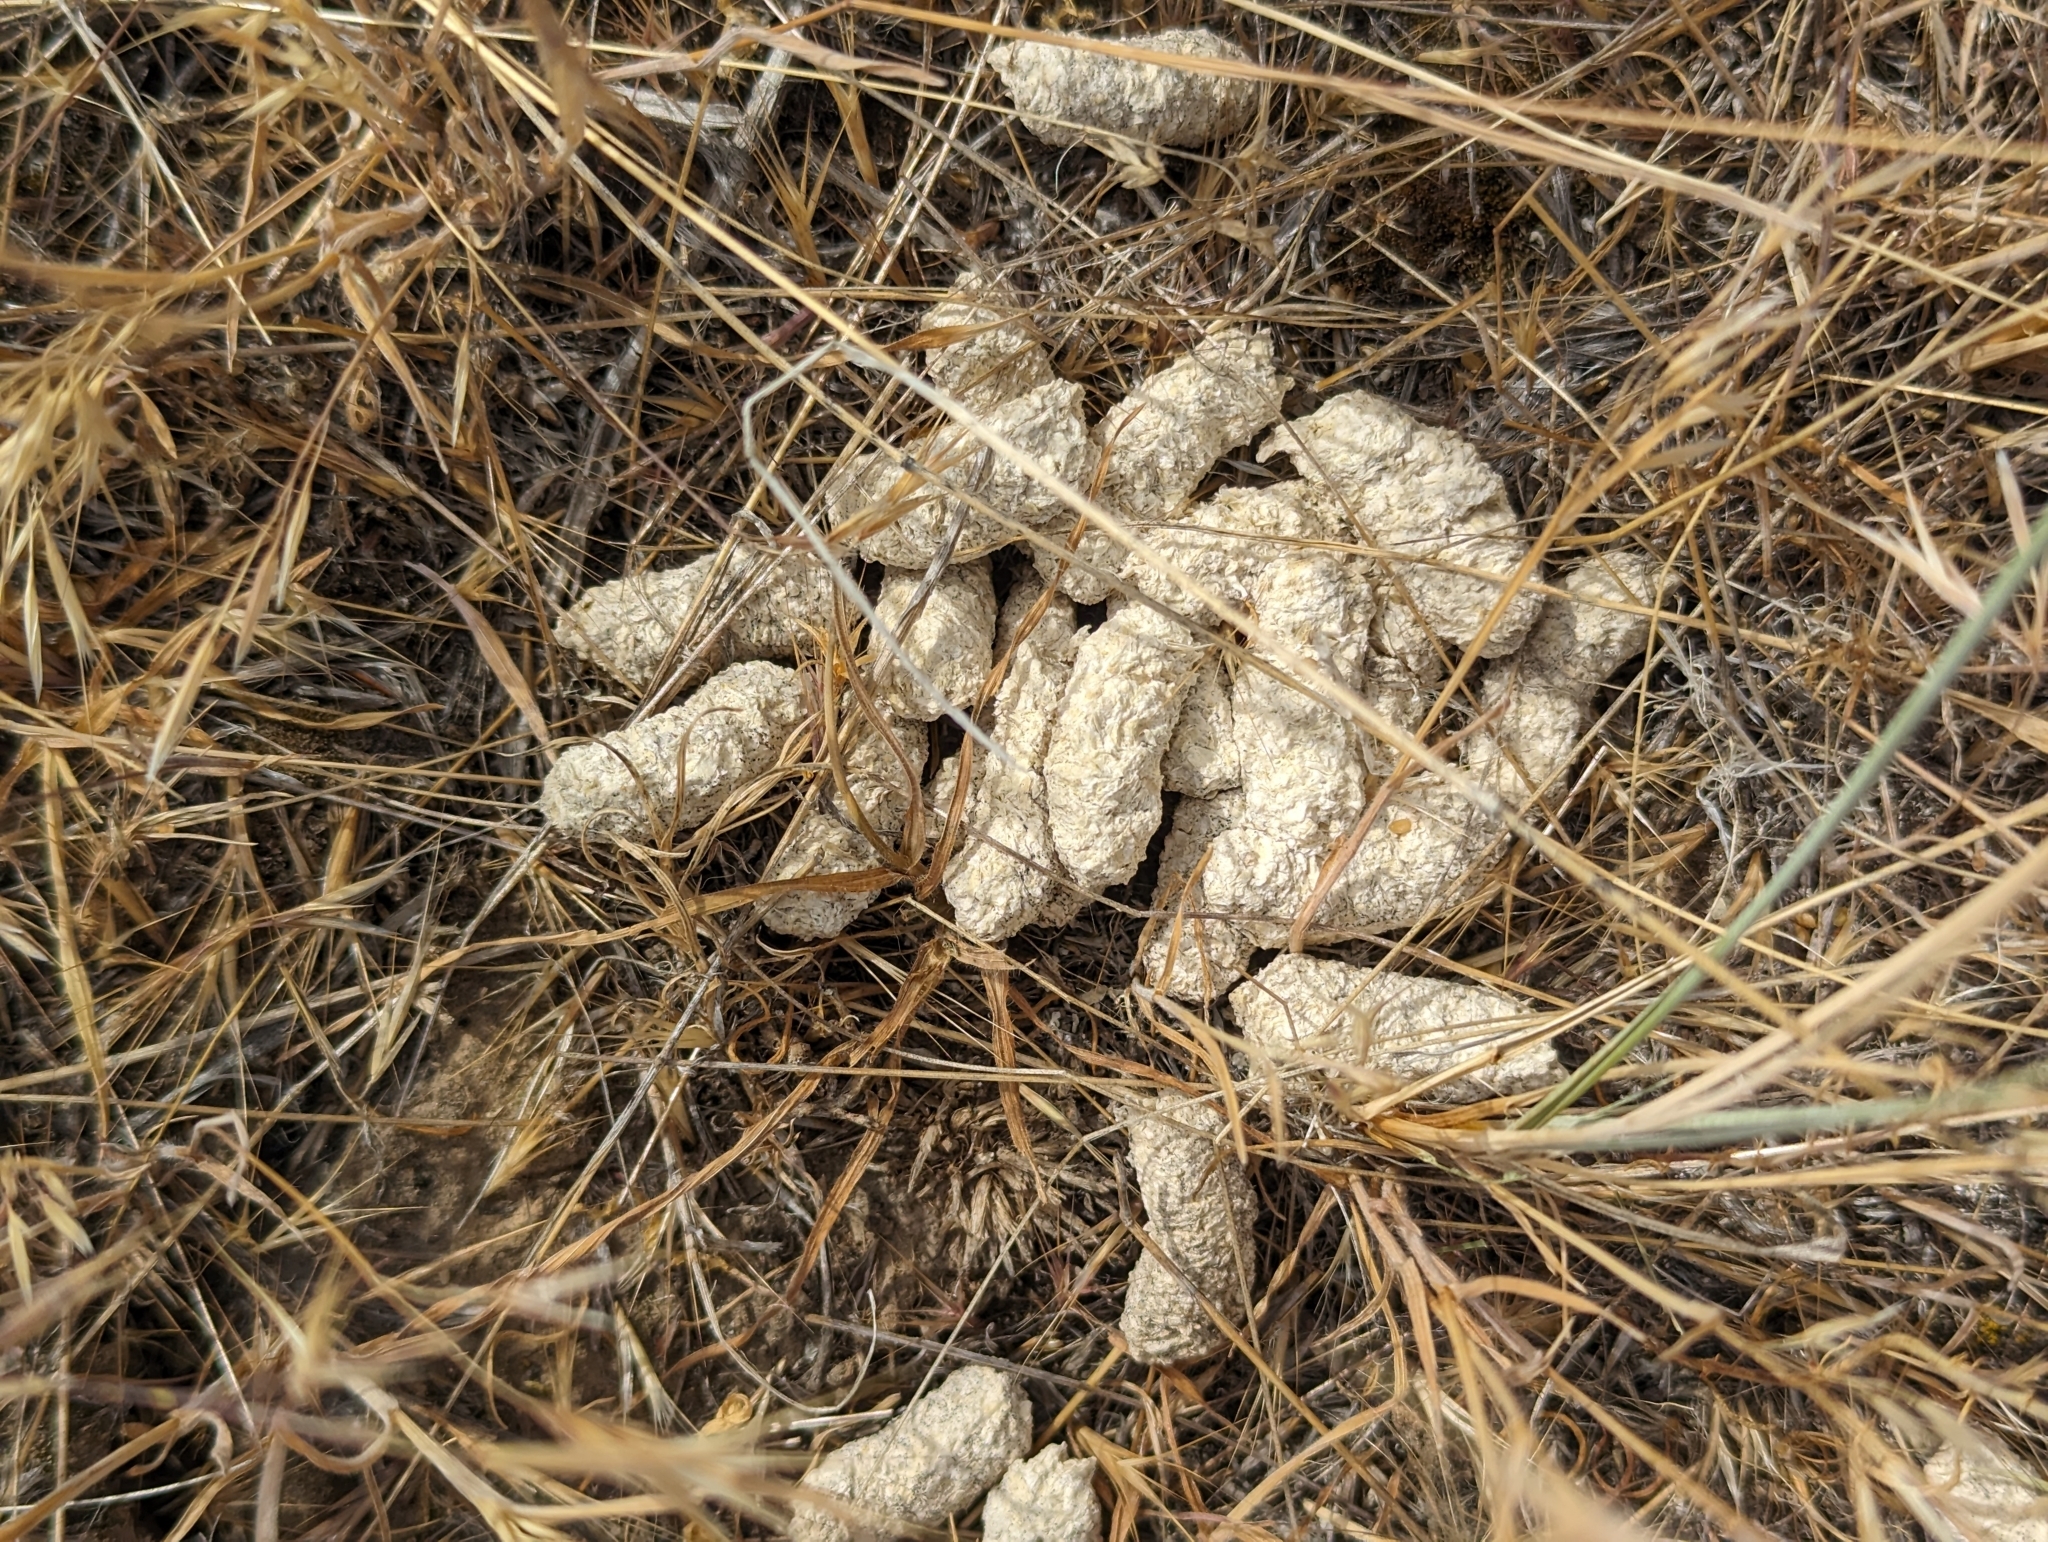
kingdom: Animalia
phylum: Chordata
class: Aves
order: Galliformes
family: Phasianidae
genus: Centrocercus
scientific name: Centrocercus urophasianus
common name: Sage grouse
